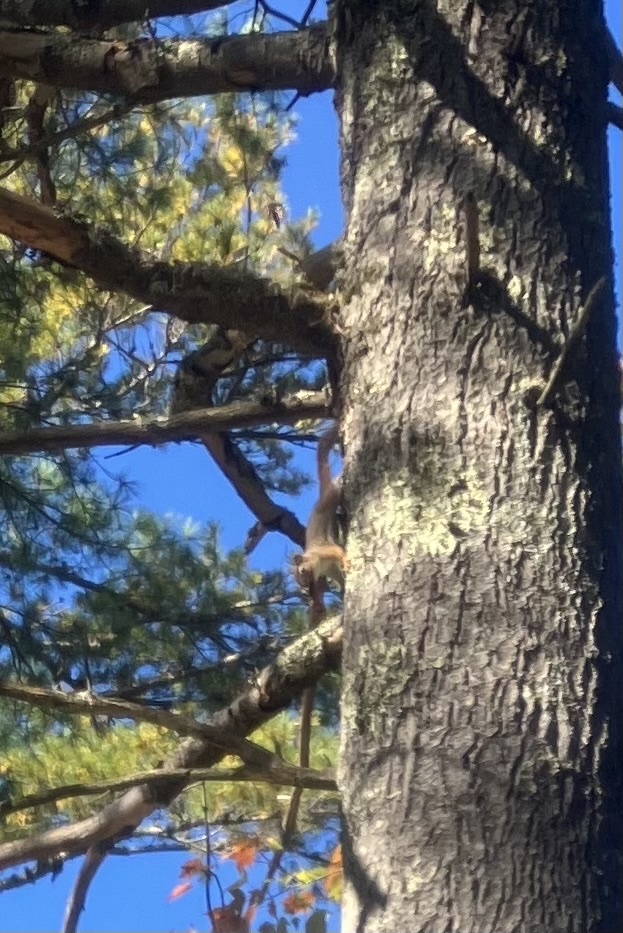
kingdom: Animalia
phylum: Chordata
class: Mammalia
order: Rodentia
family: Sciuridae
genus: Tamiasciurus
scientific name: Tamiasciurus hudsonicus
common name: Red squirrel
